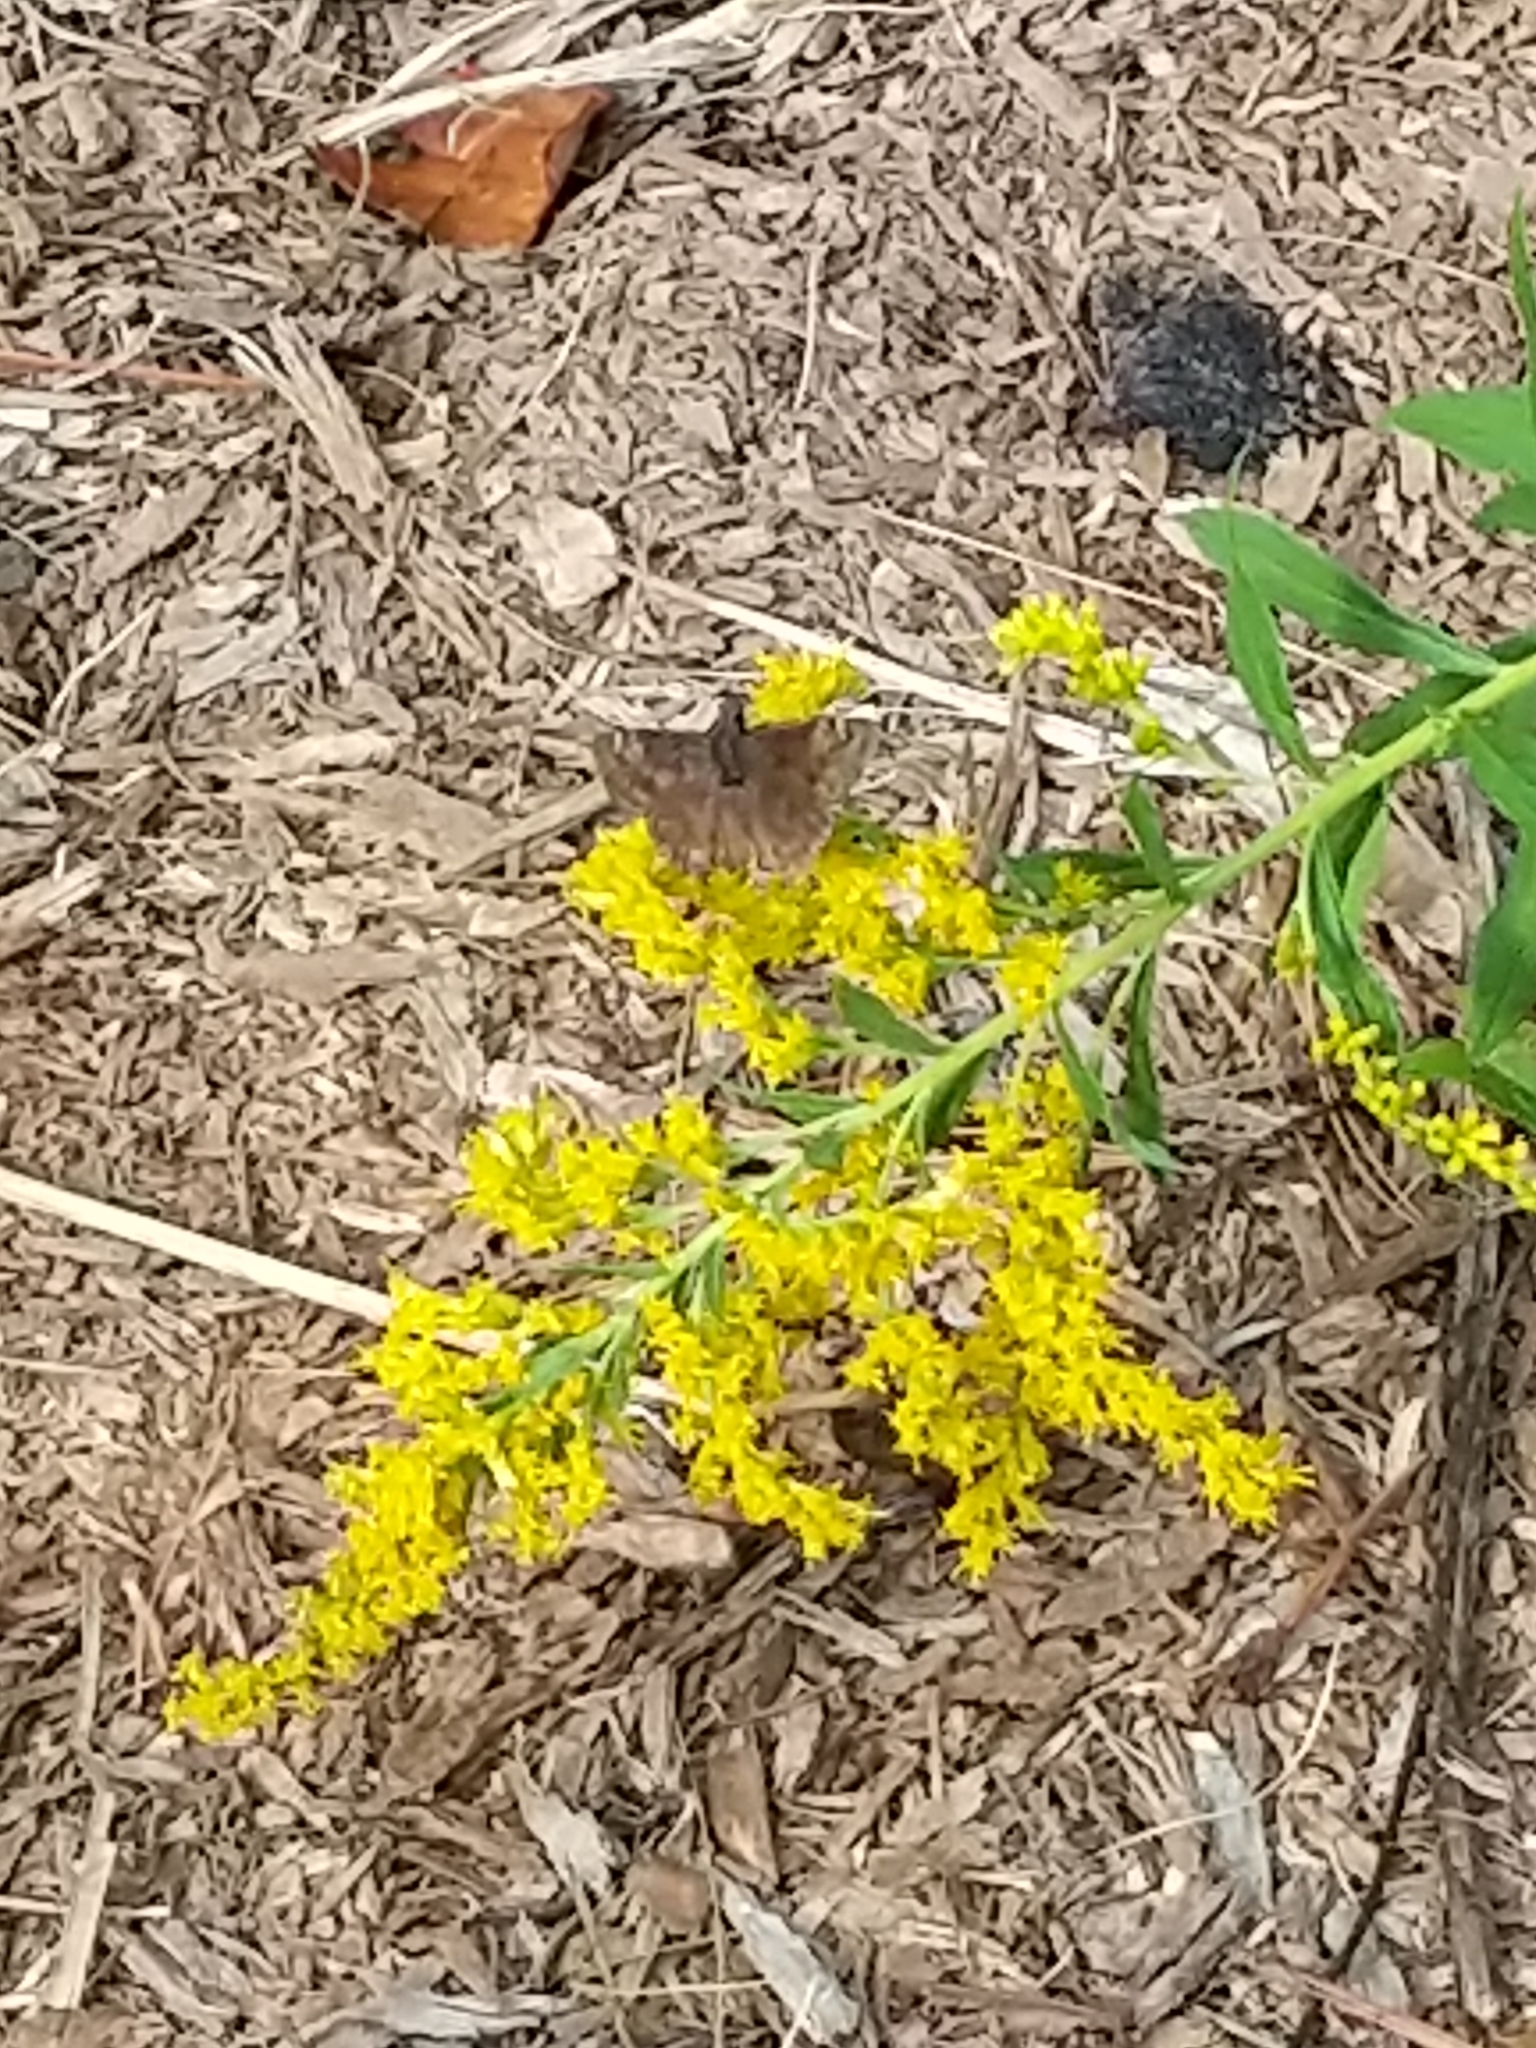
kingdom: Animalia
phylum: Arthropoda
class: Insecta
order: Lepidoptera
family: Hesperiidae
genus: Erynnis
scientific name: Erynnis baptisiae
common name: Wild indigo duskywing
